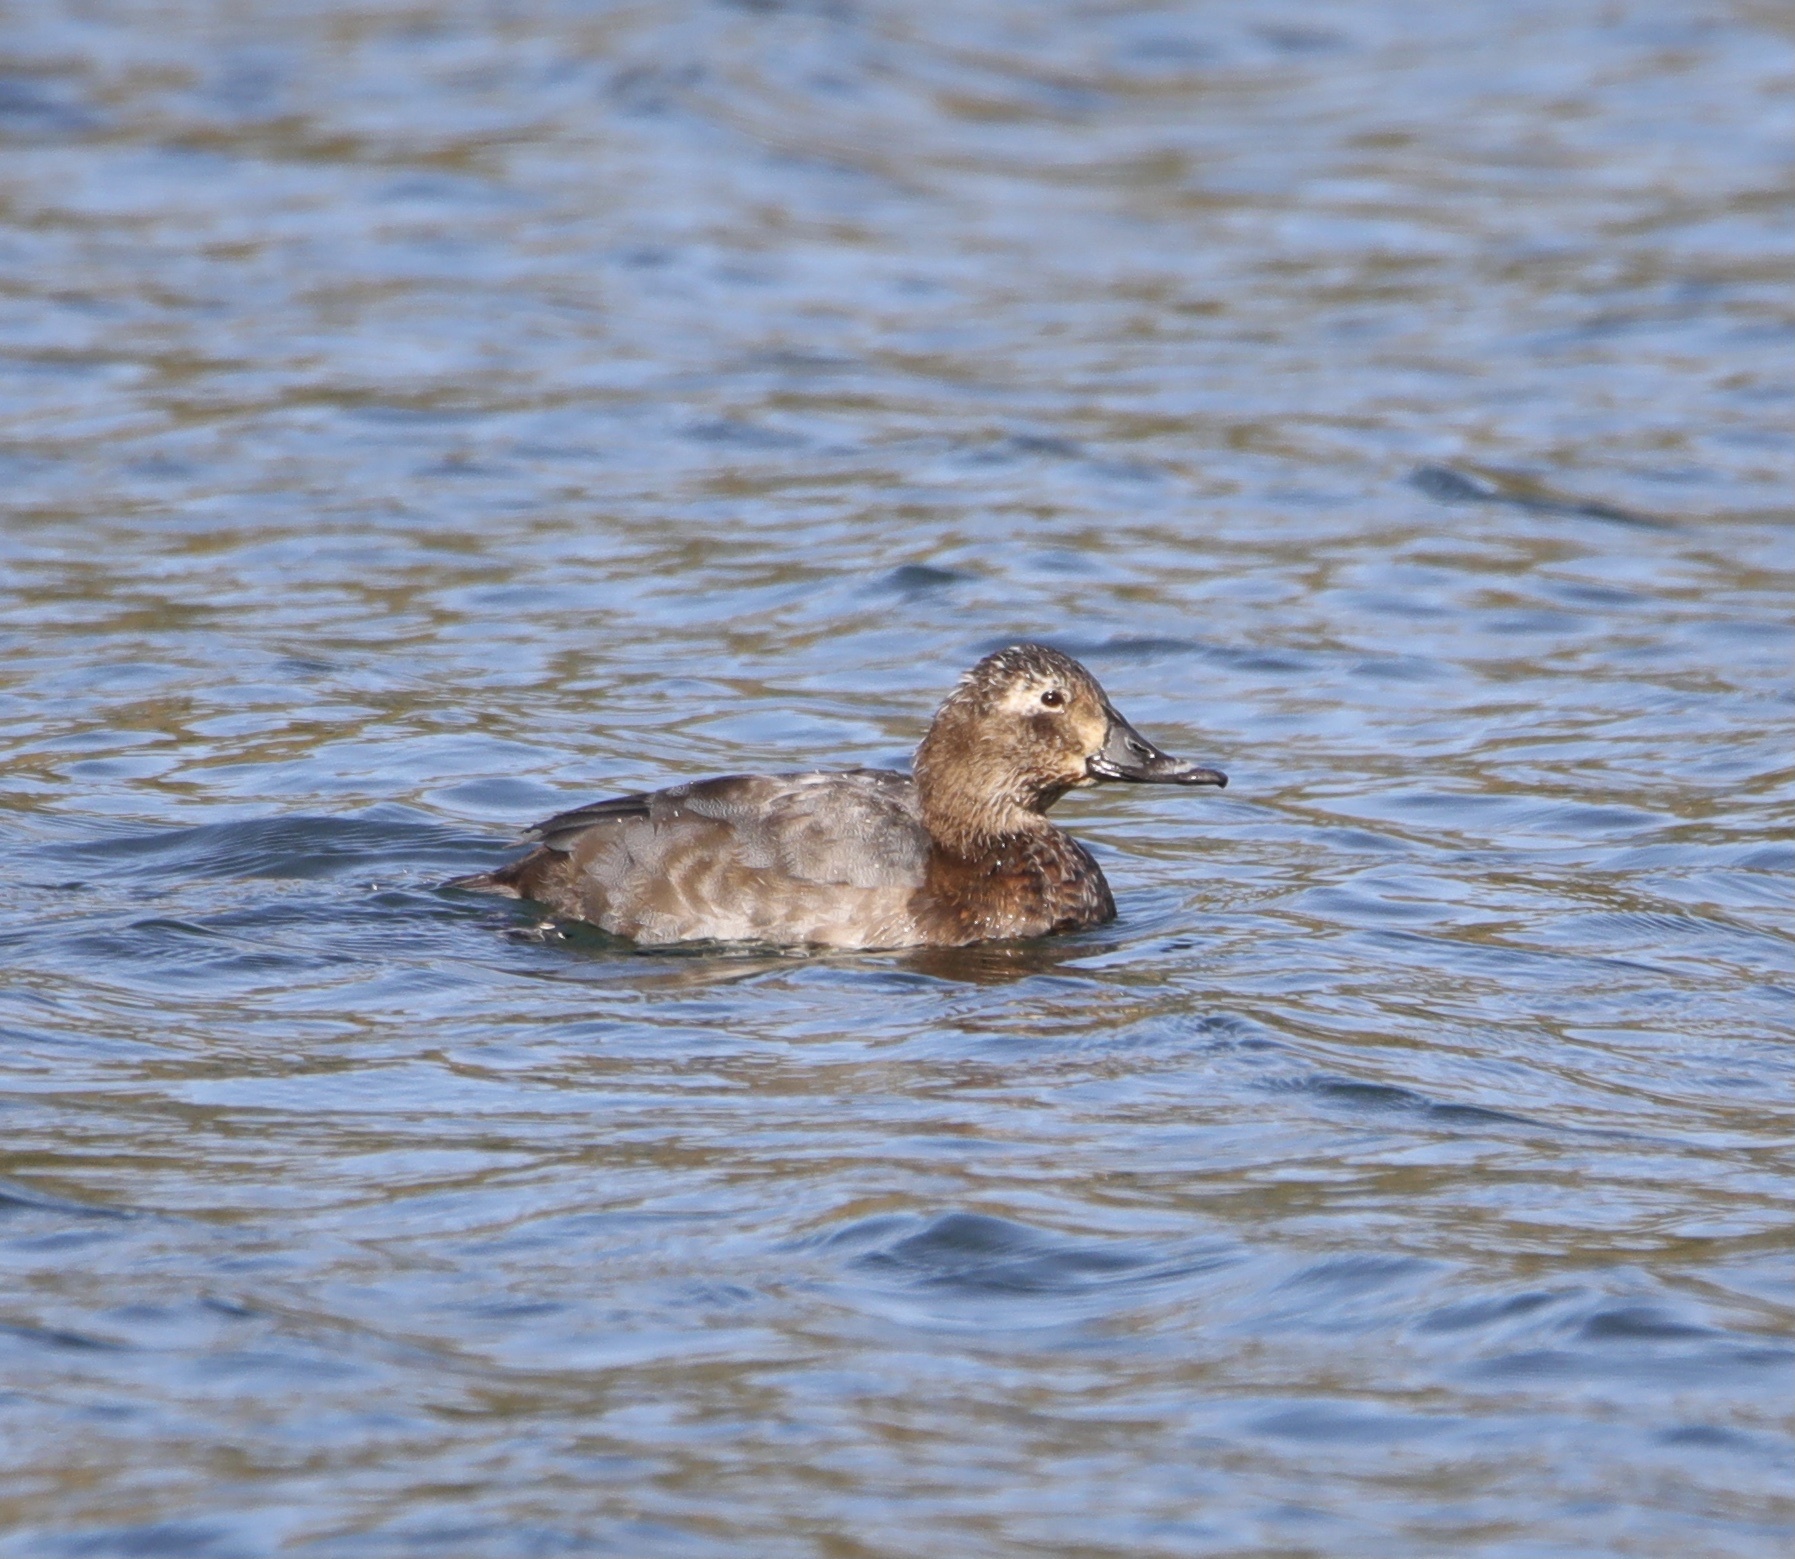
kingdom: Animalia
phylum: Chordata
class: Aves
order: Anseriformes
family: Anatidae
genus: Aythya
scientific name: Aythya ferina
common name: Common pochard
